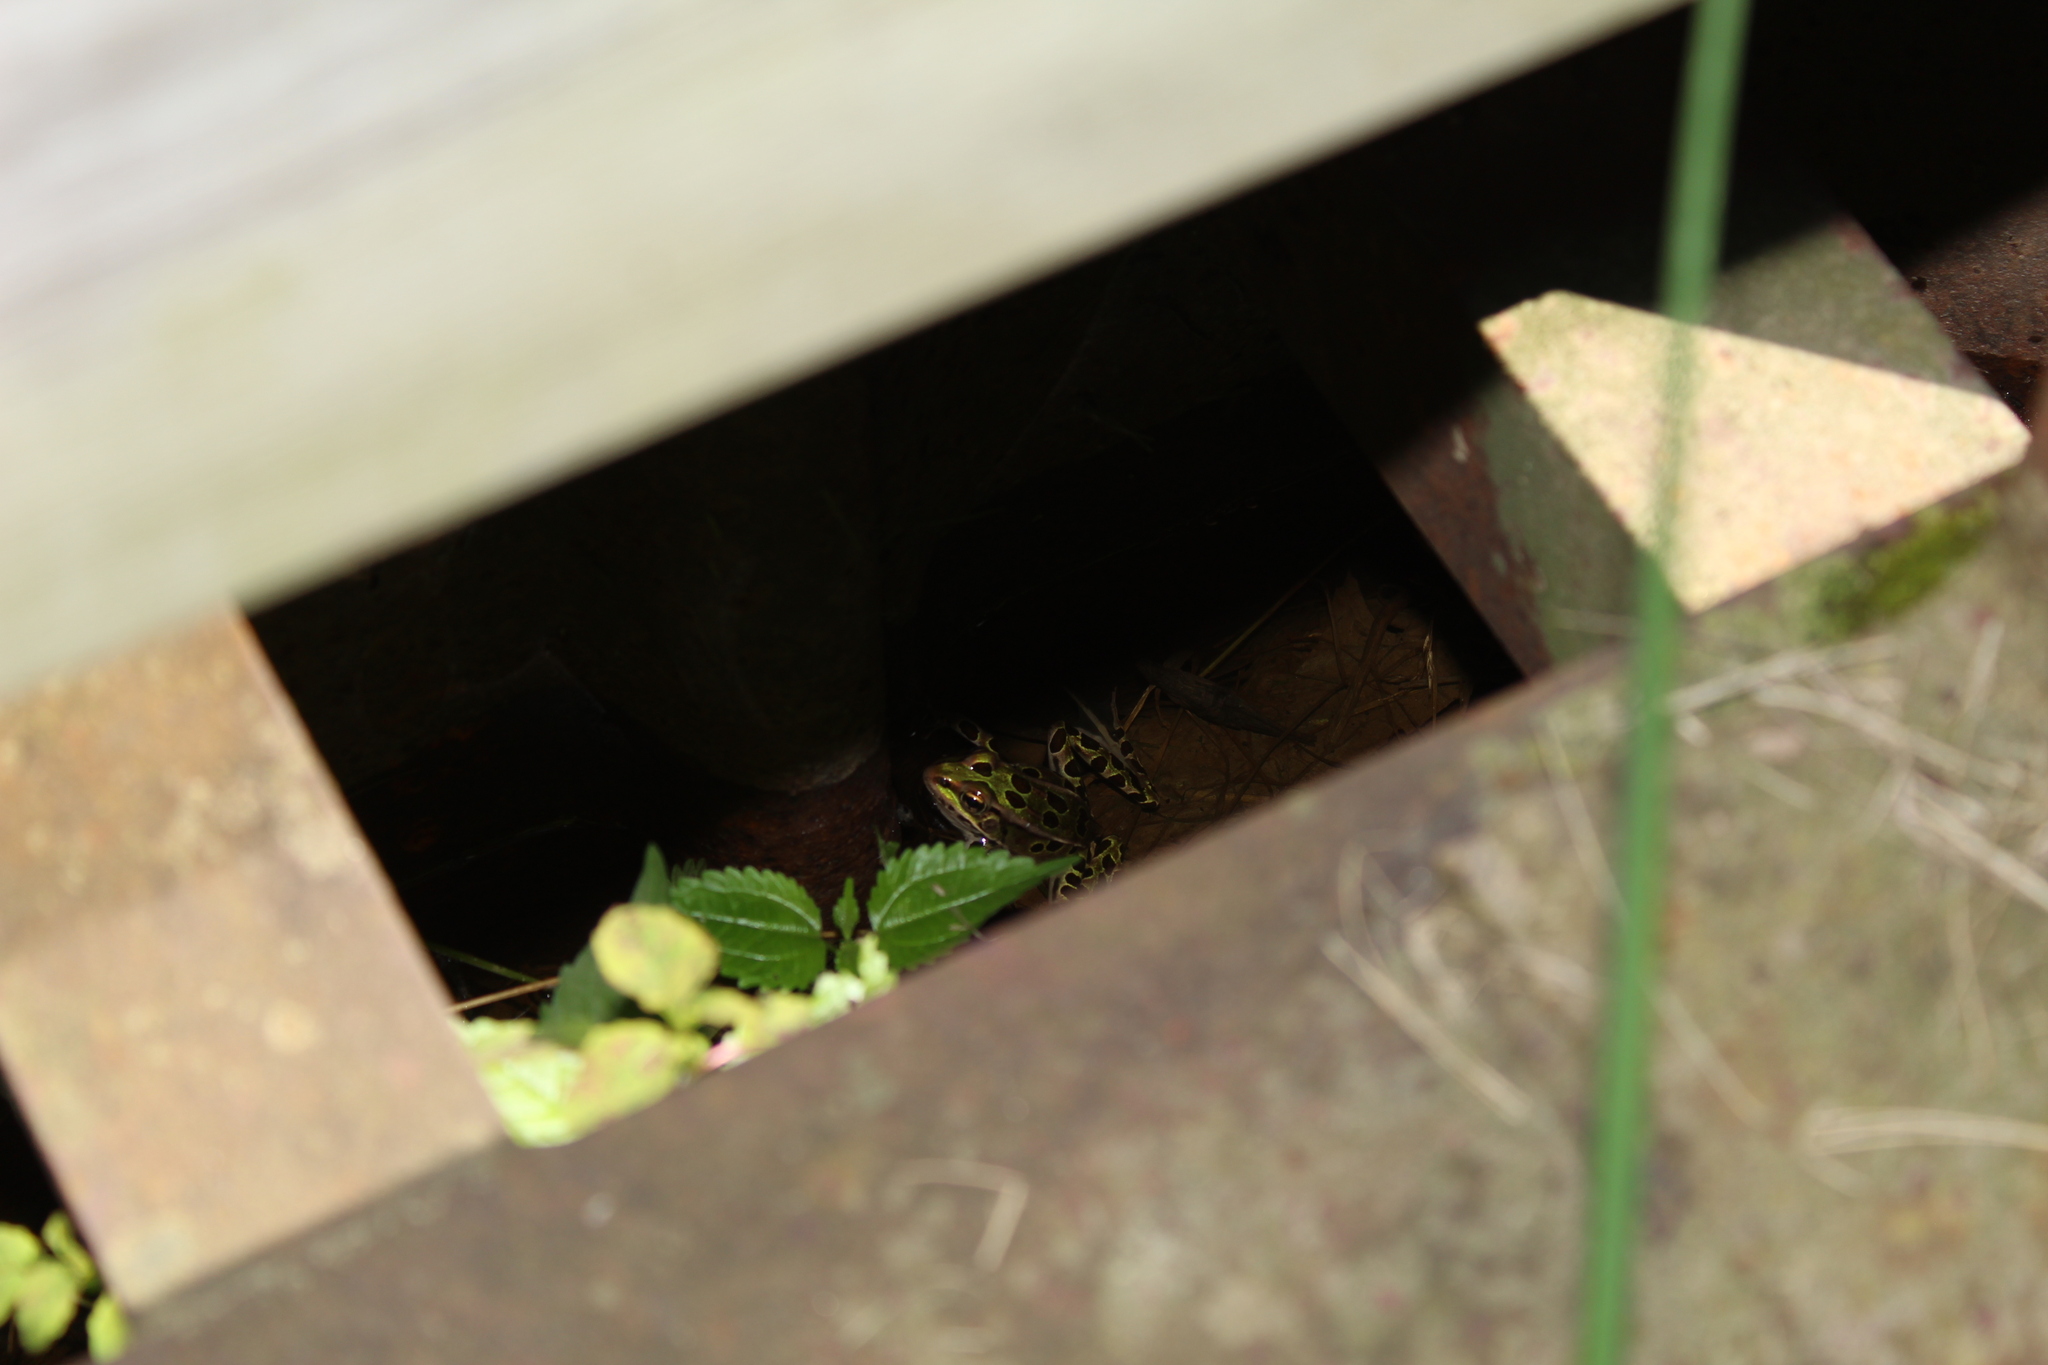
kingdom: Animalia
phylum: Chordata
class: Amphibia
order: Anura
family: Ranidae
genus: Lithobates
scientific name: Lithobates pipiens
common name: Northern leopard frog
